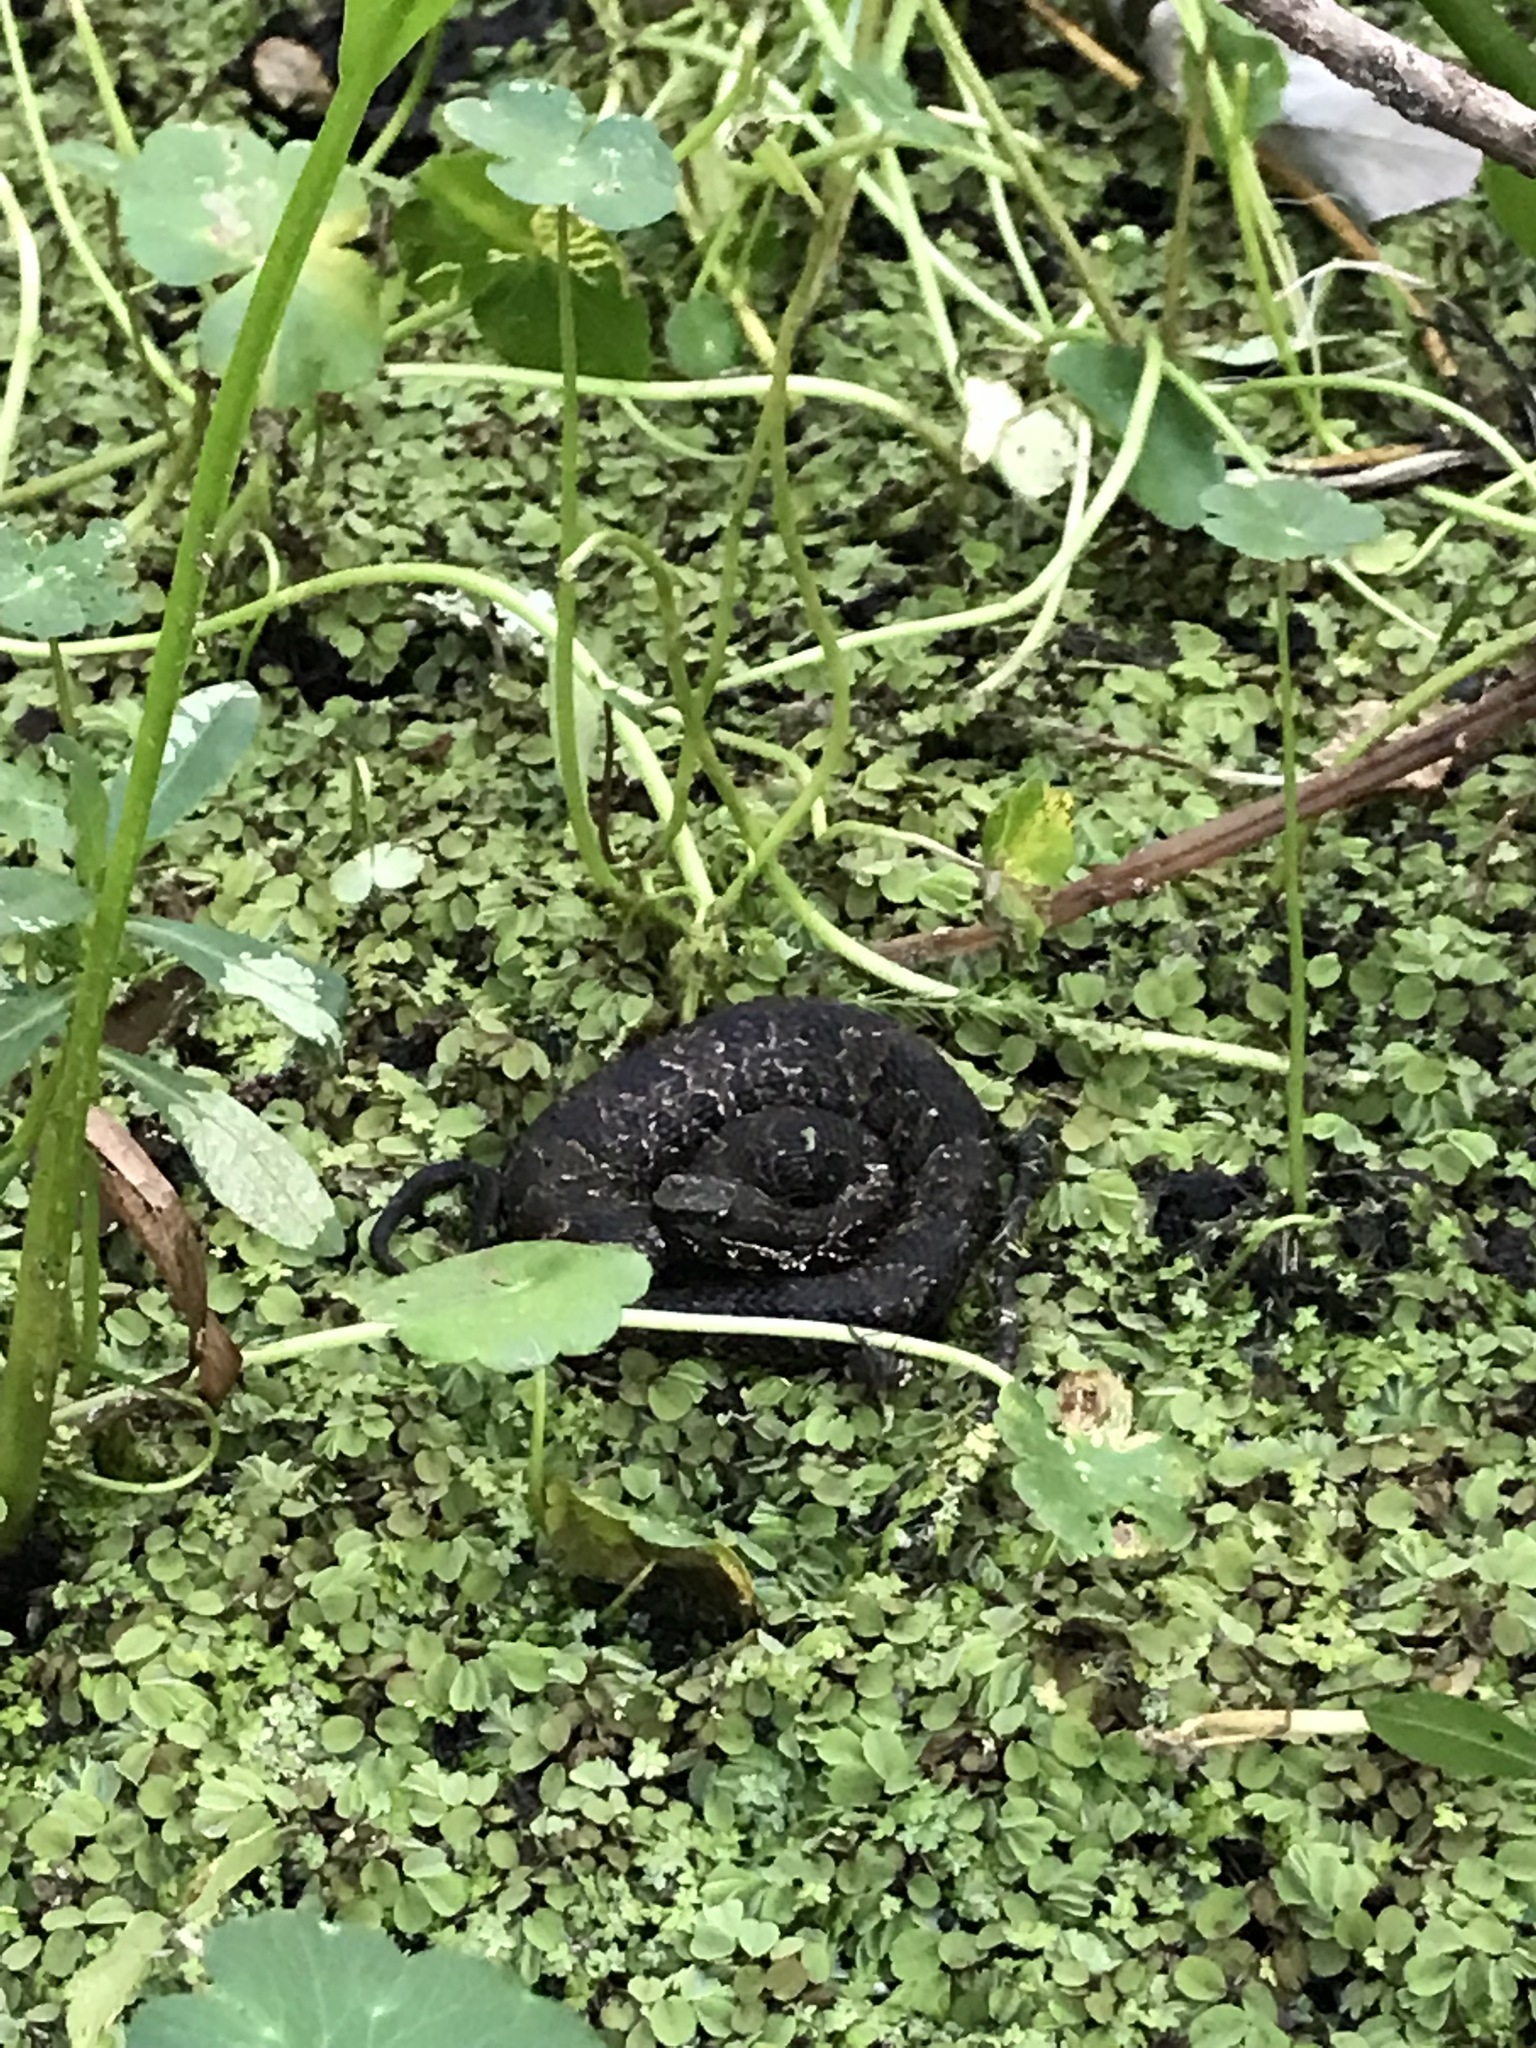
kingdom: Animalia
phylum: Chordata
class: Squamata
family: Viperidae
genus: Agkistrodon
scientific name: Agkistrodon piscivorus
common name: Cottonmouth
